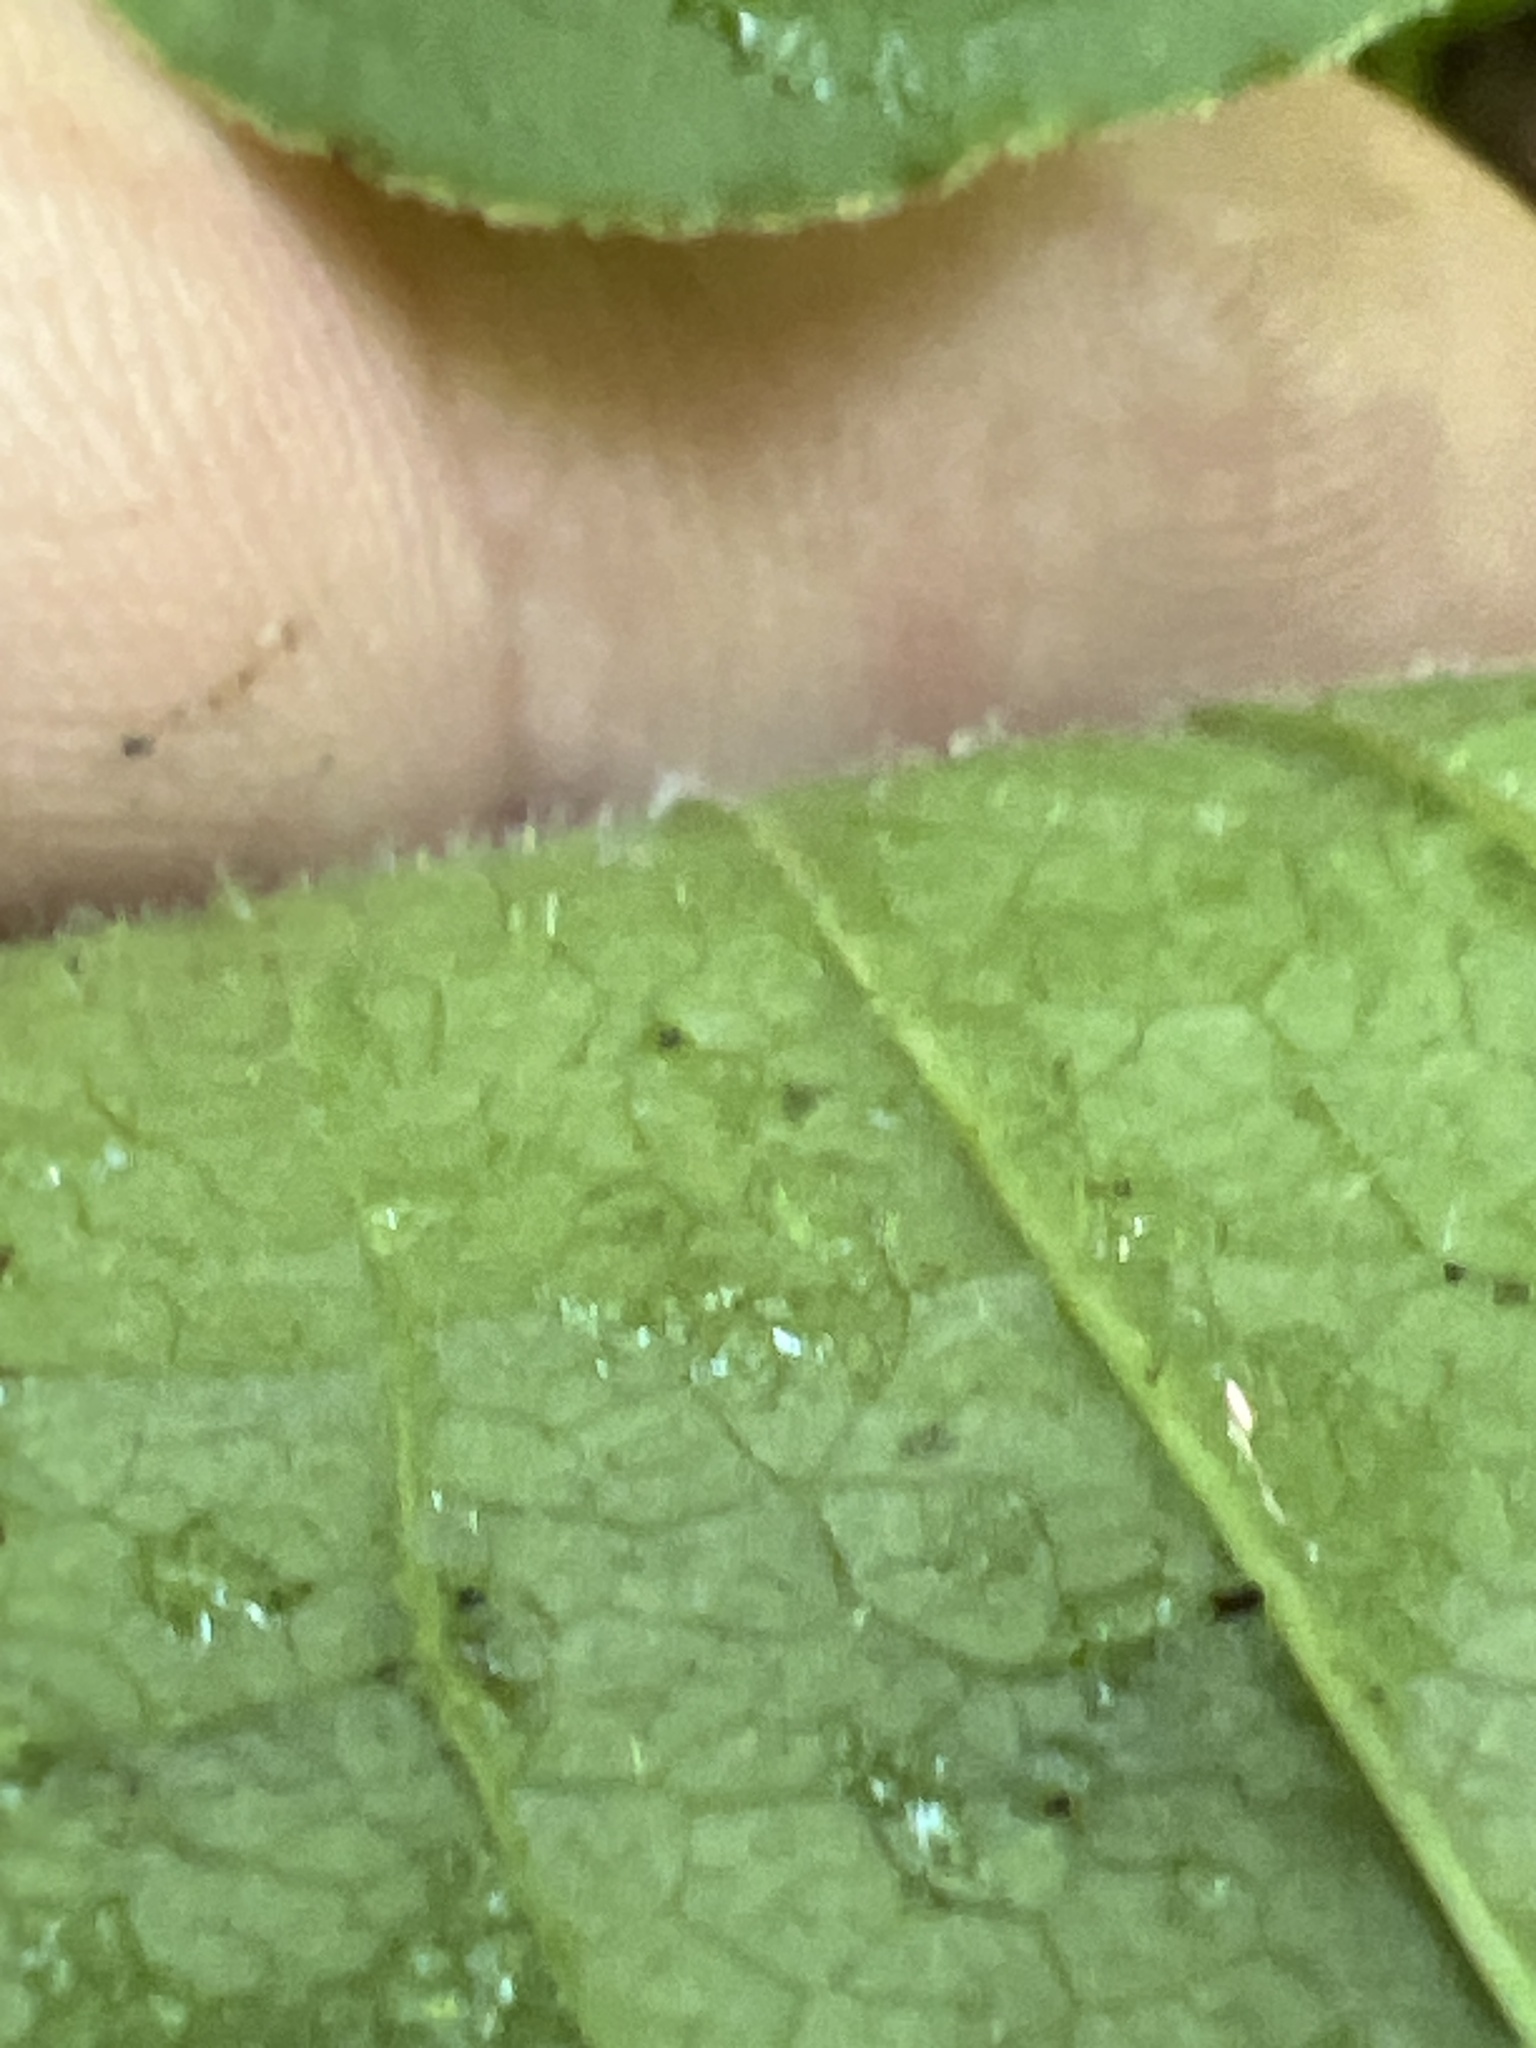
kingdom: Plantae
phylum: Tracheophyta
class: Liliopsida
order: Liliales
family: Smilacaceae
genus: Smilax
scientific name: Smilax pulverulenta
